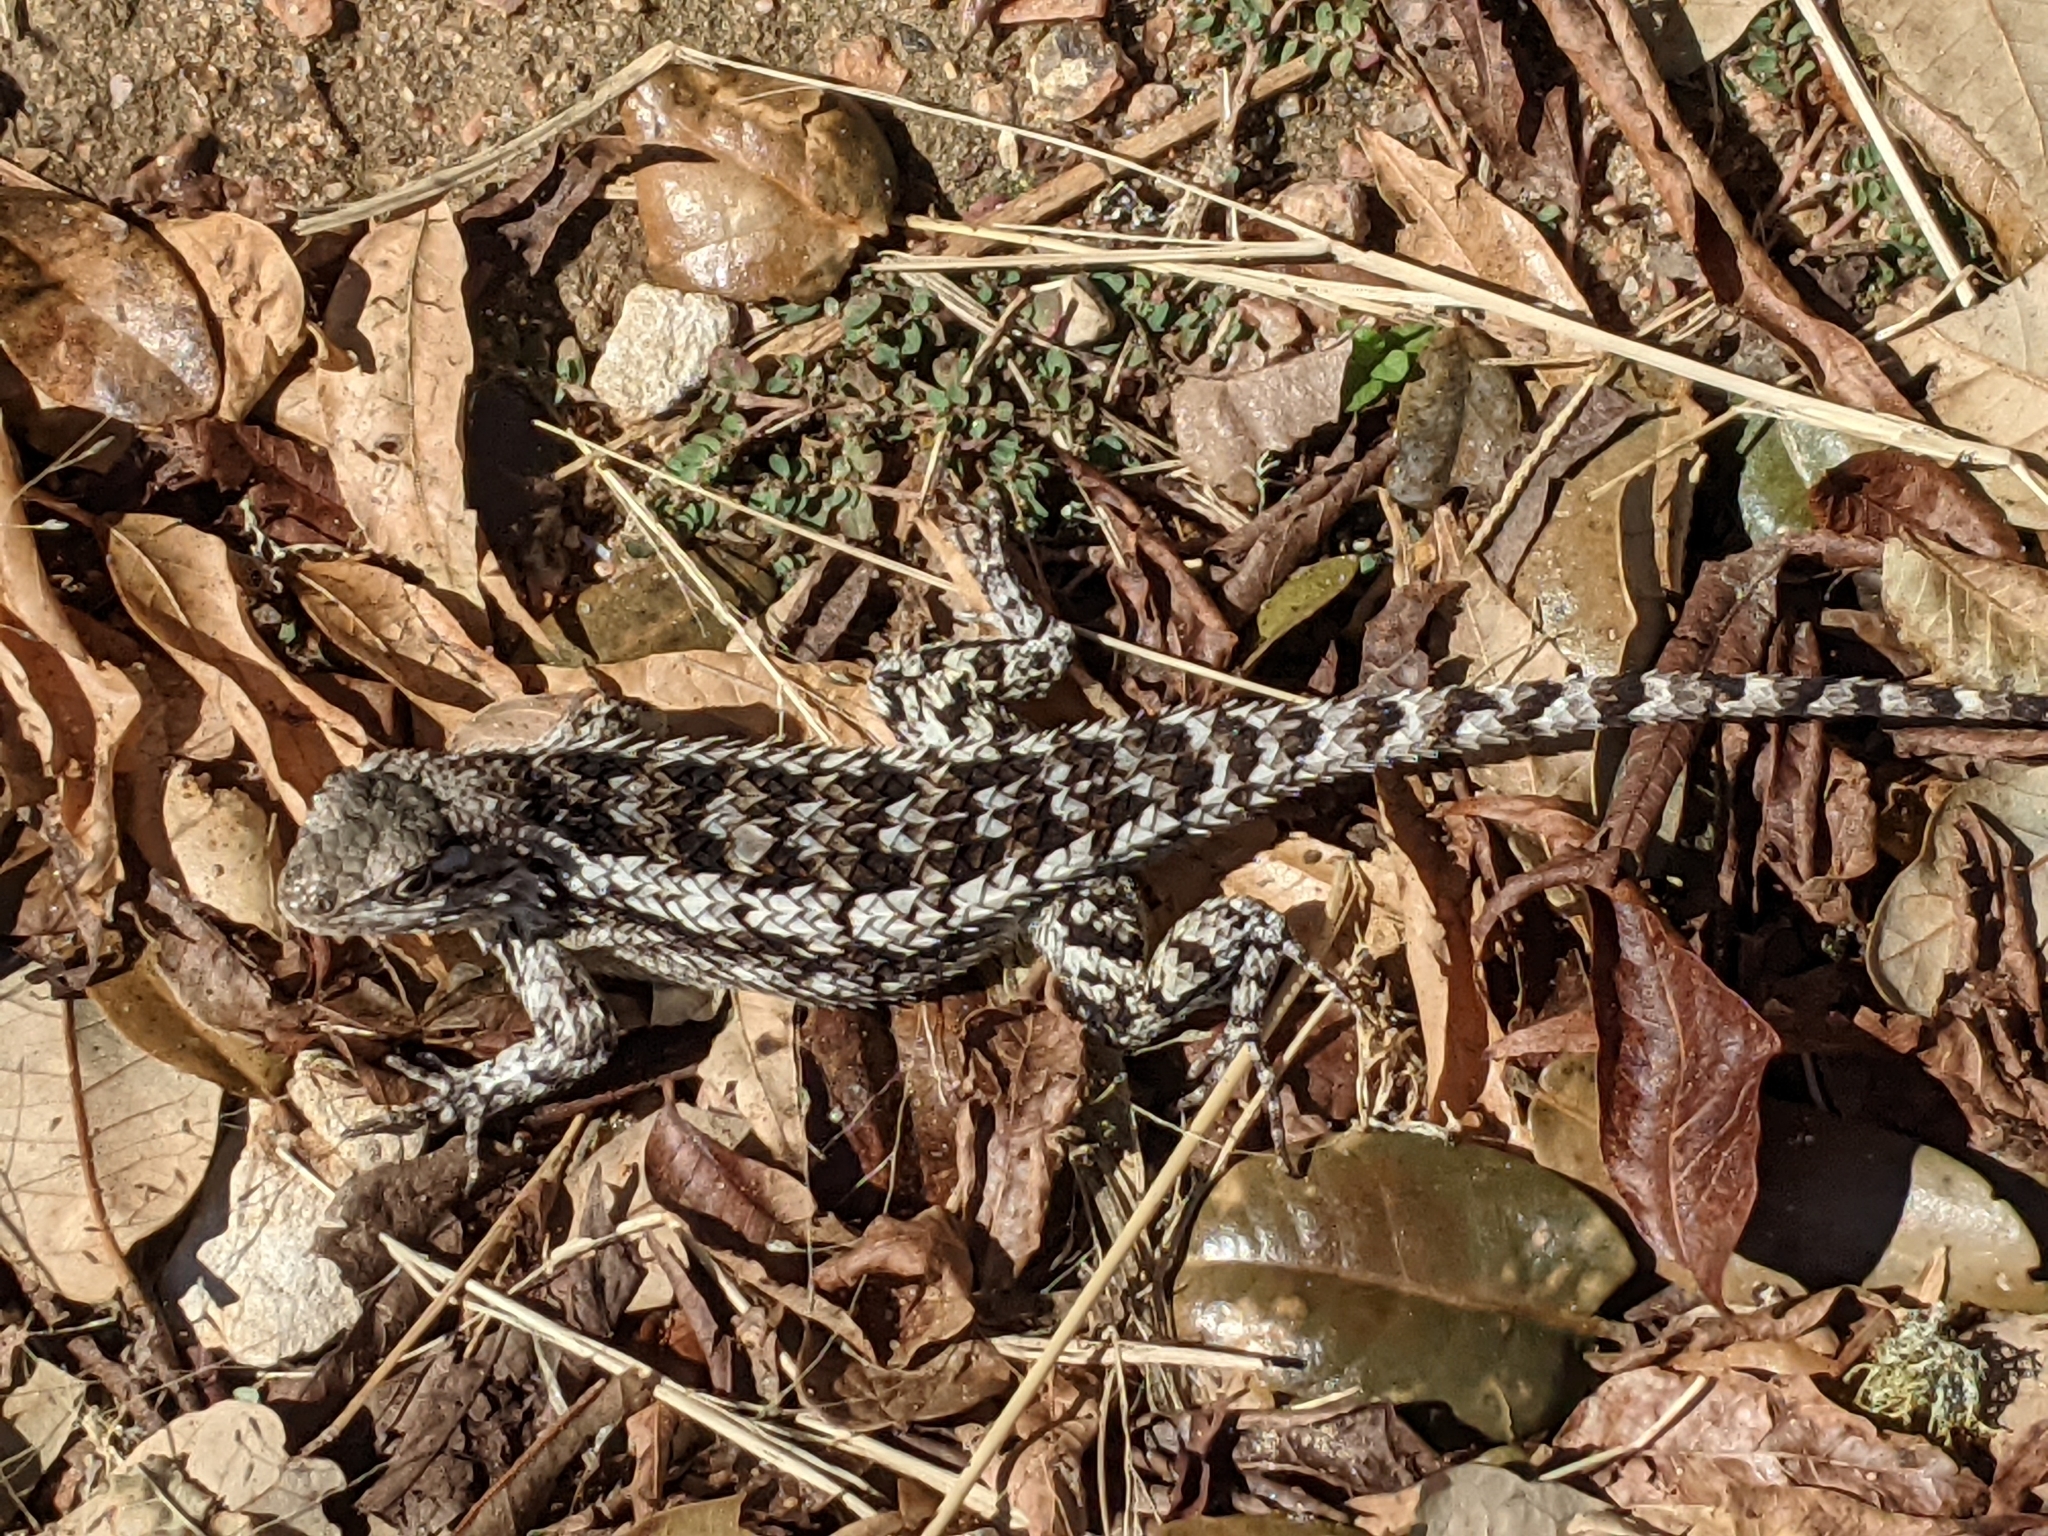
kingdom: Animalia
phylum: Chordata
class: Squamata
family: Phrynosomatidae
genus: Sceloporus
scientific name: Sceloporus olivaceus
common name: Texas spiny lizard
